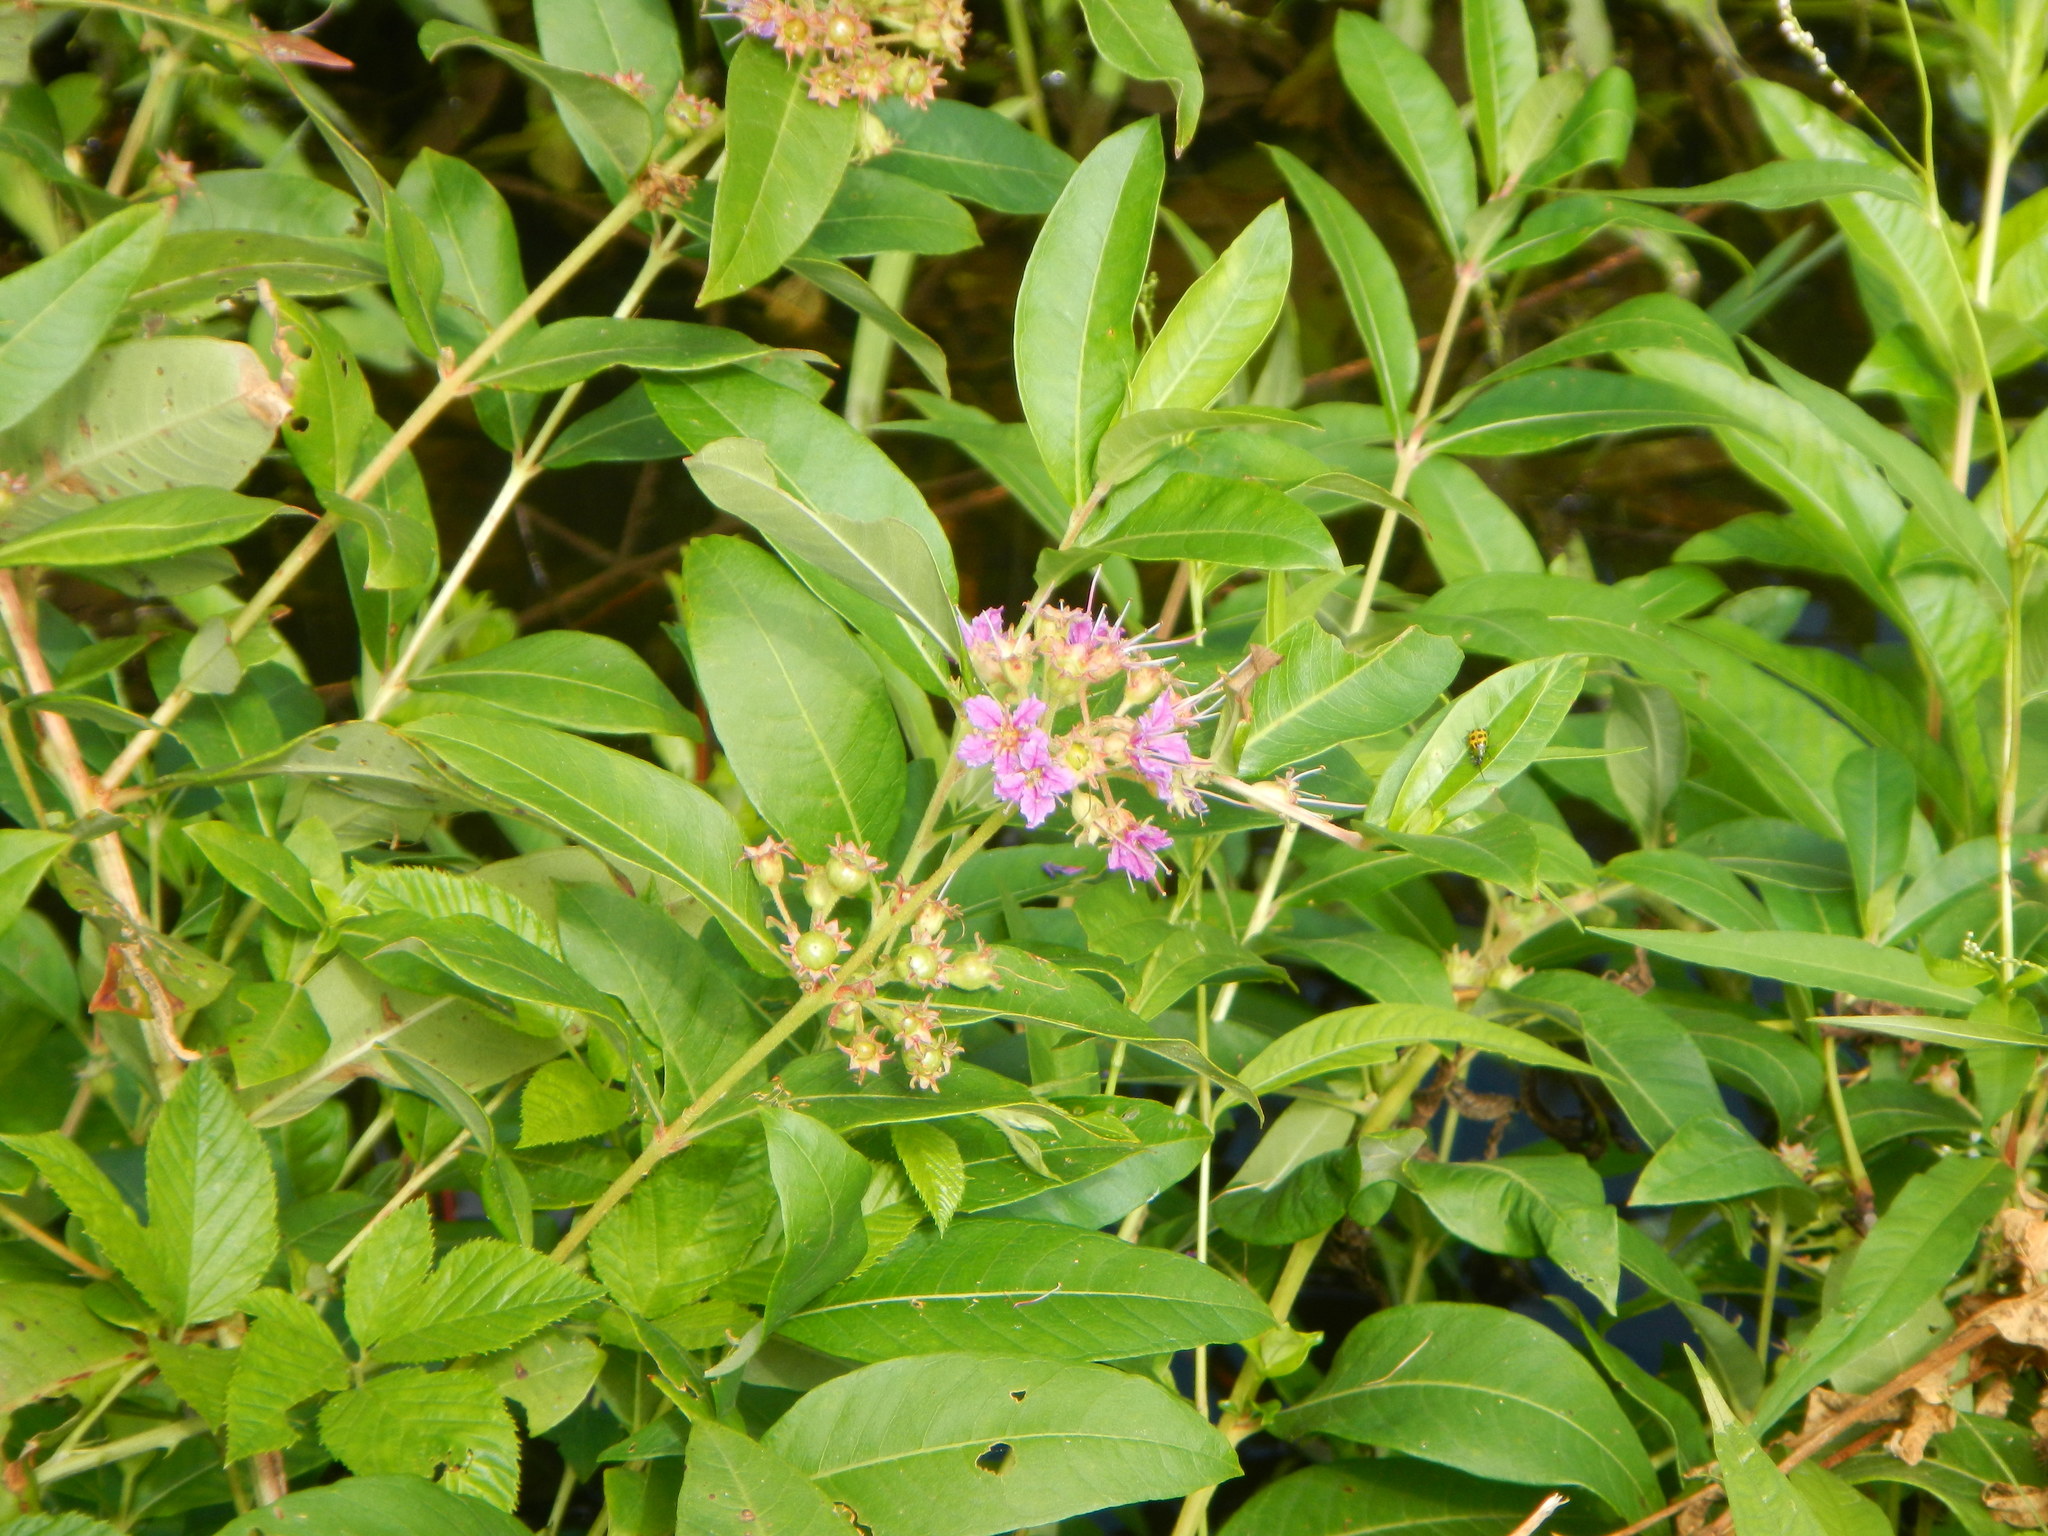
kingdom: Plantae
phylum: Tracheophyta
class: Magnoliopsida
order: Myrtales
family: Lythraceae
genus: Decodon
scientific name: Decodon verticillatus
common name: Hairy swamp loosestrife
